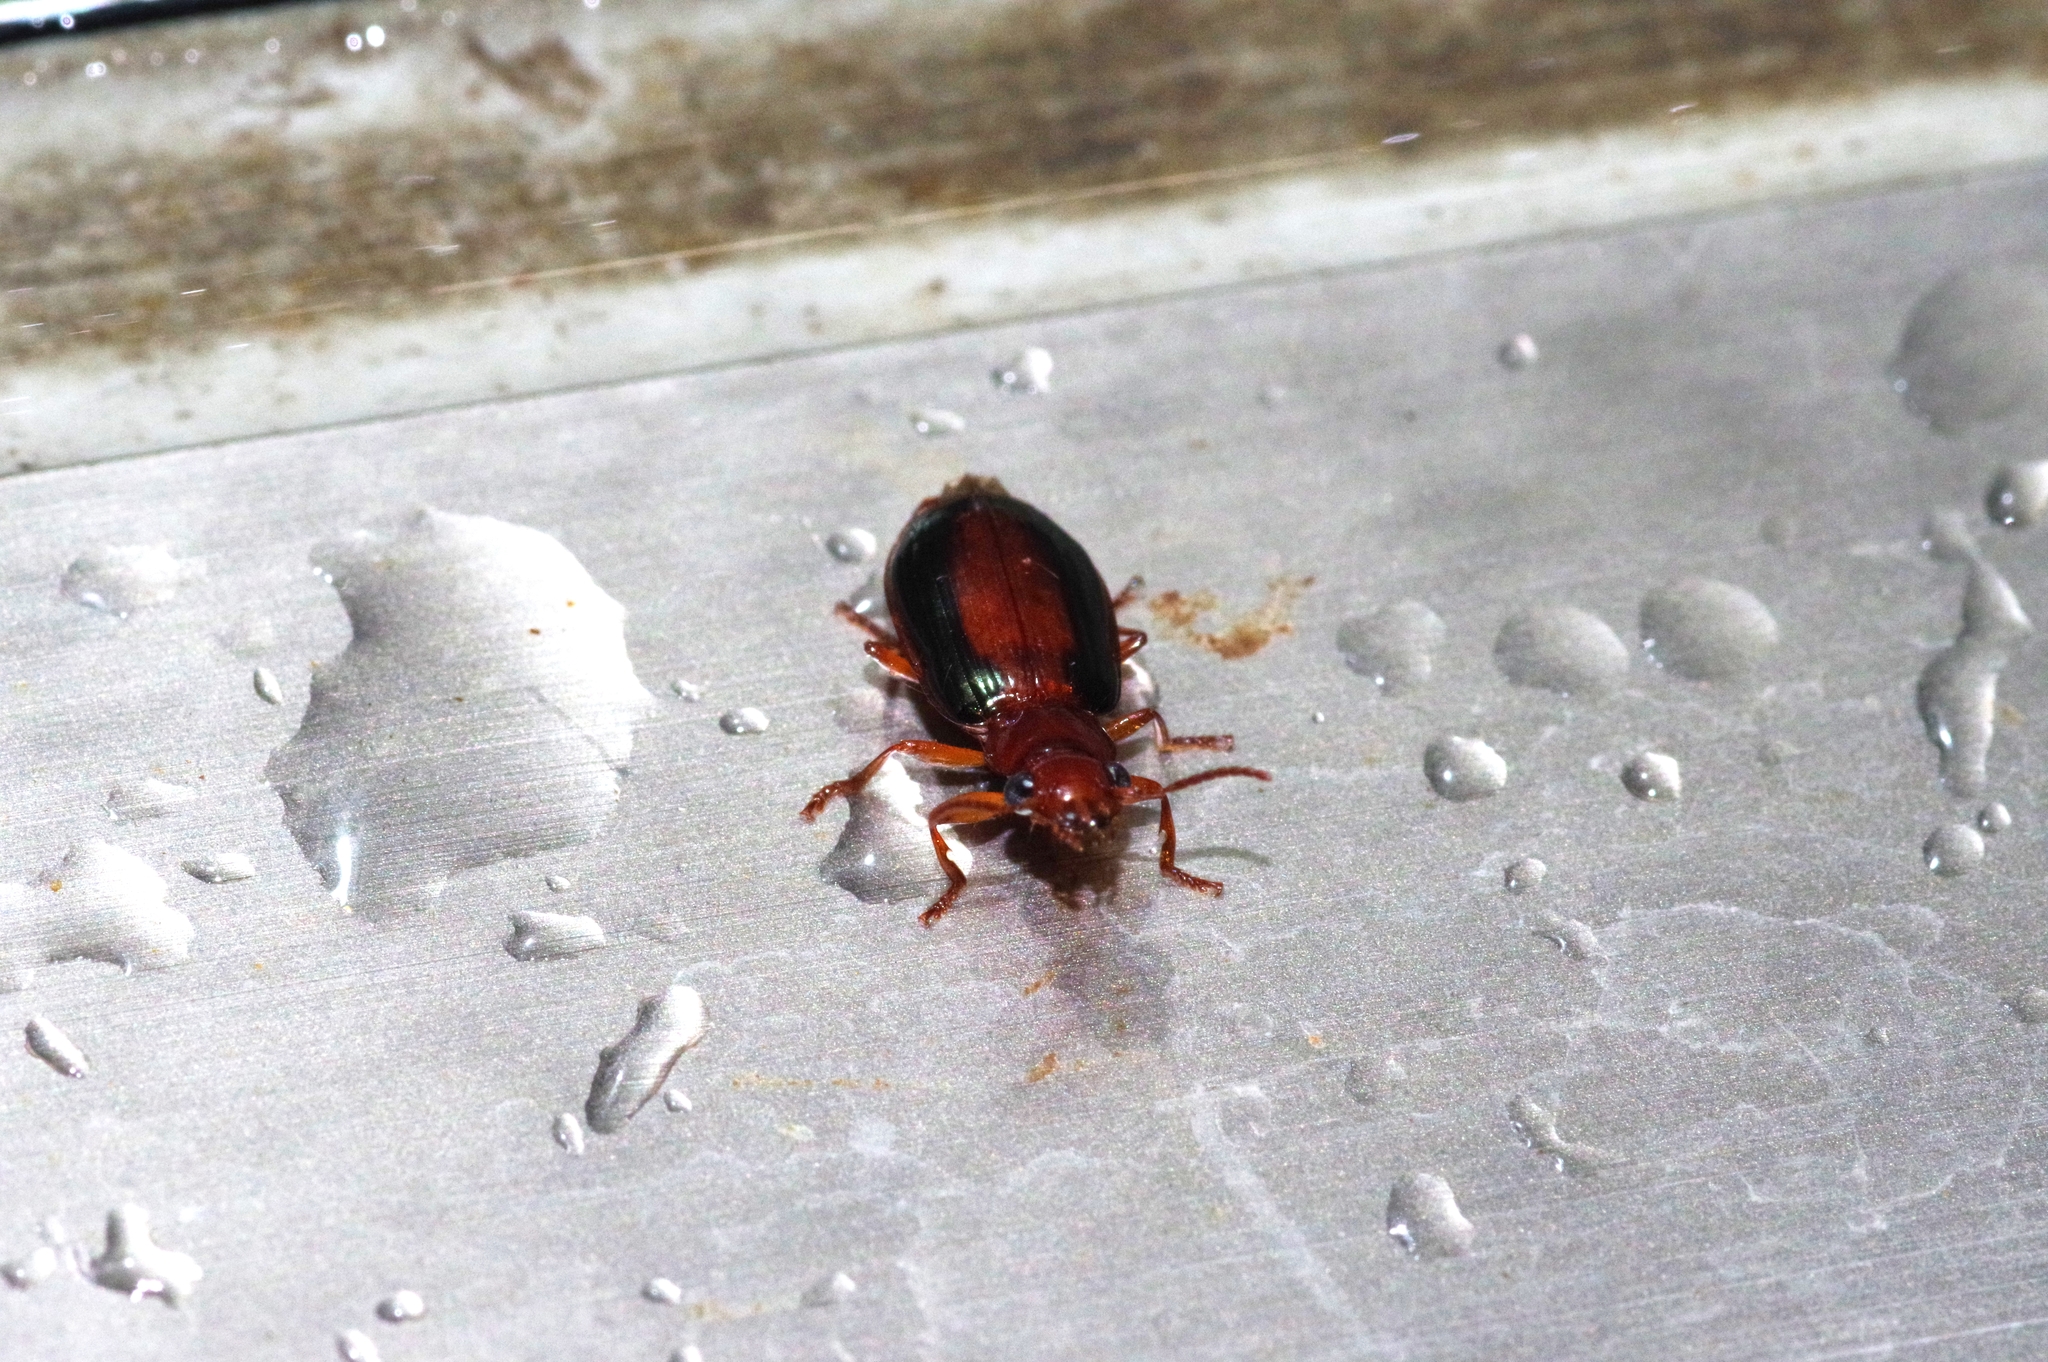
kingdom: Animalia
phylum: Arthropoda
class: Insecta
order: Coleoptera
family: Carabidae
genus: Parena
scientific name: Parena nigrolineata
